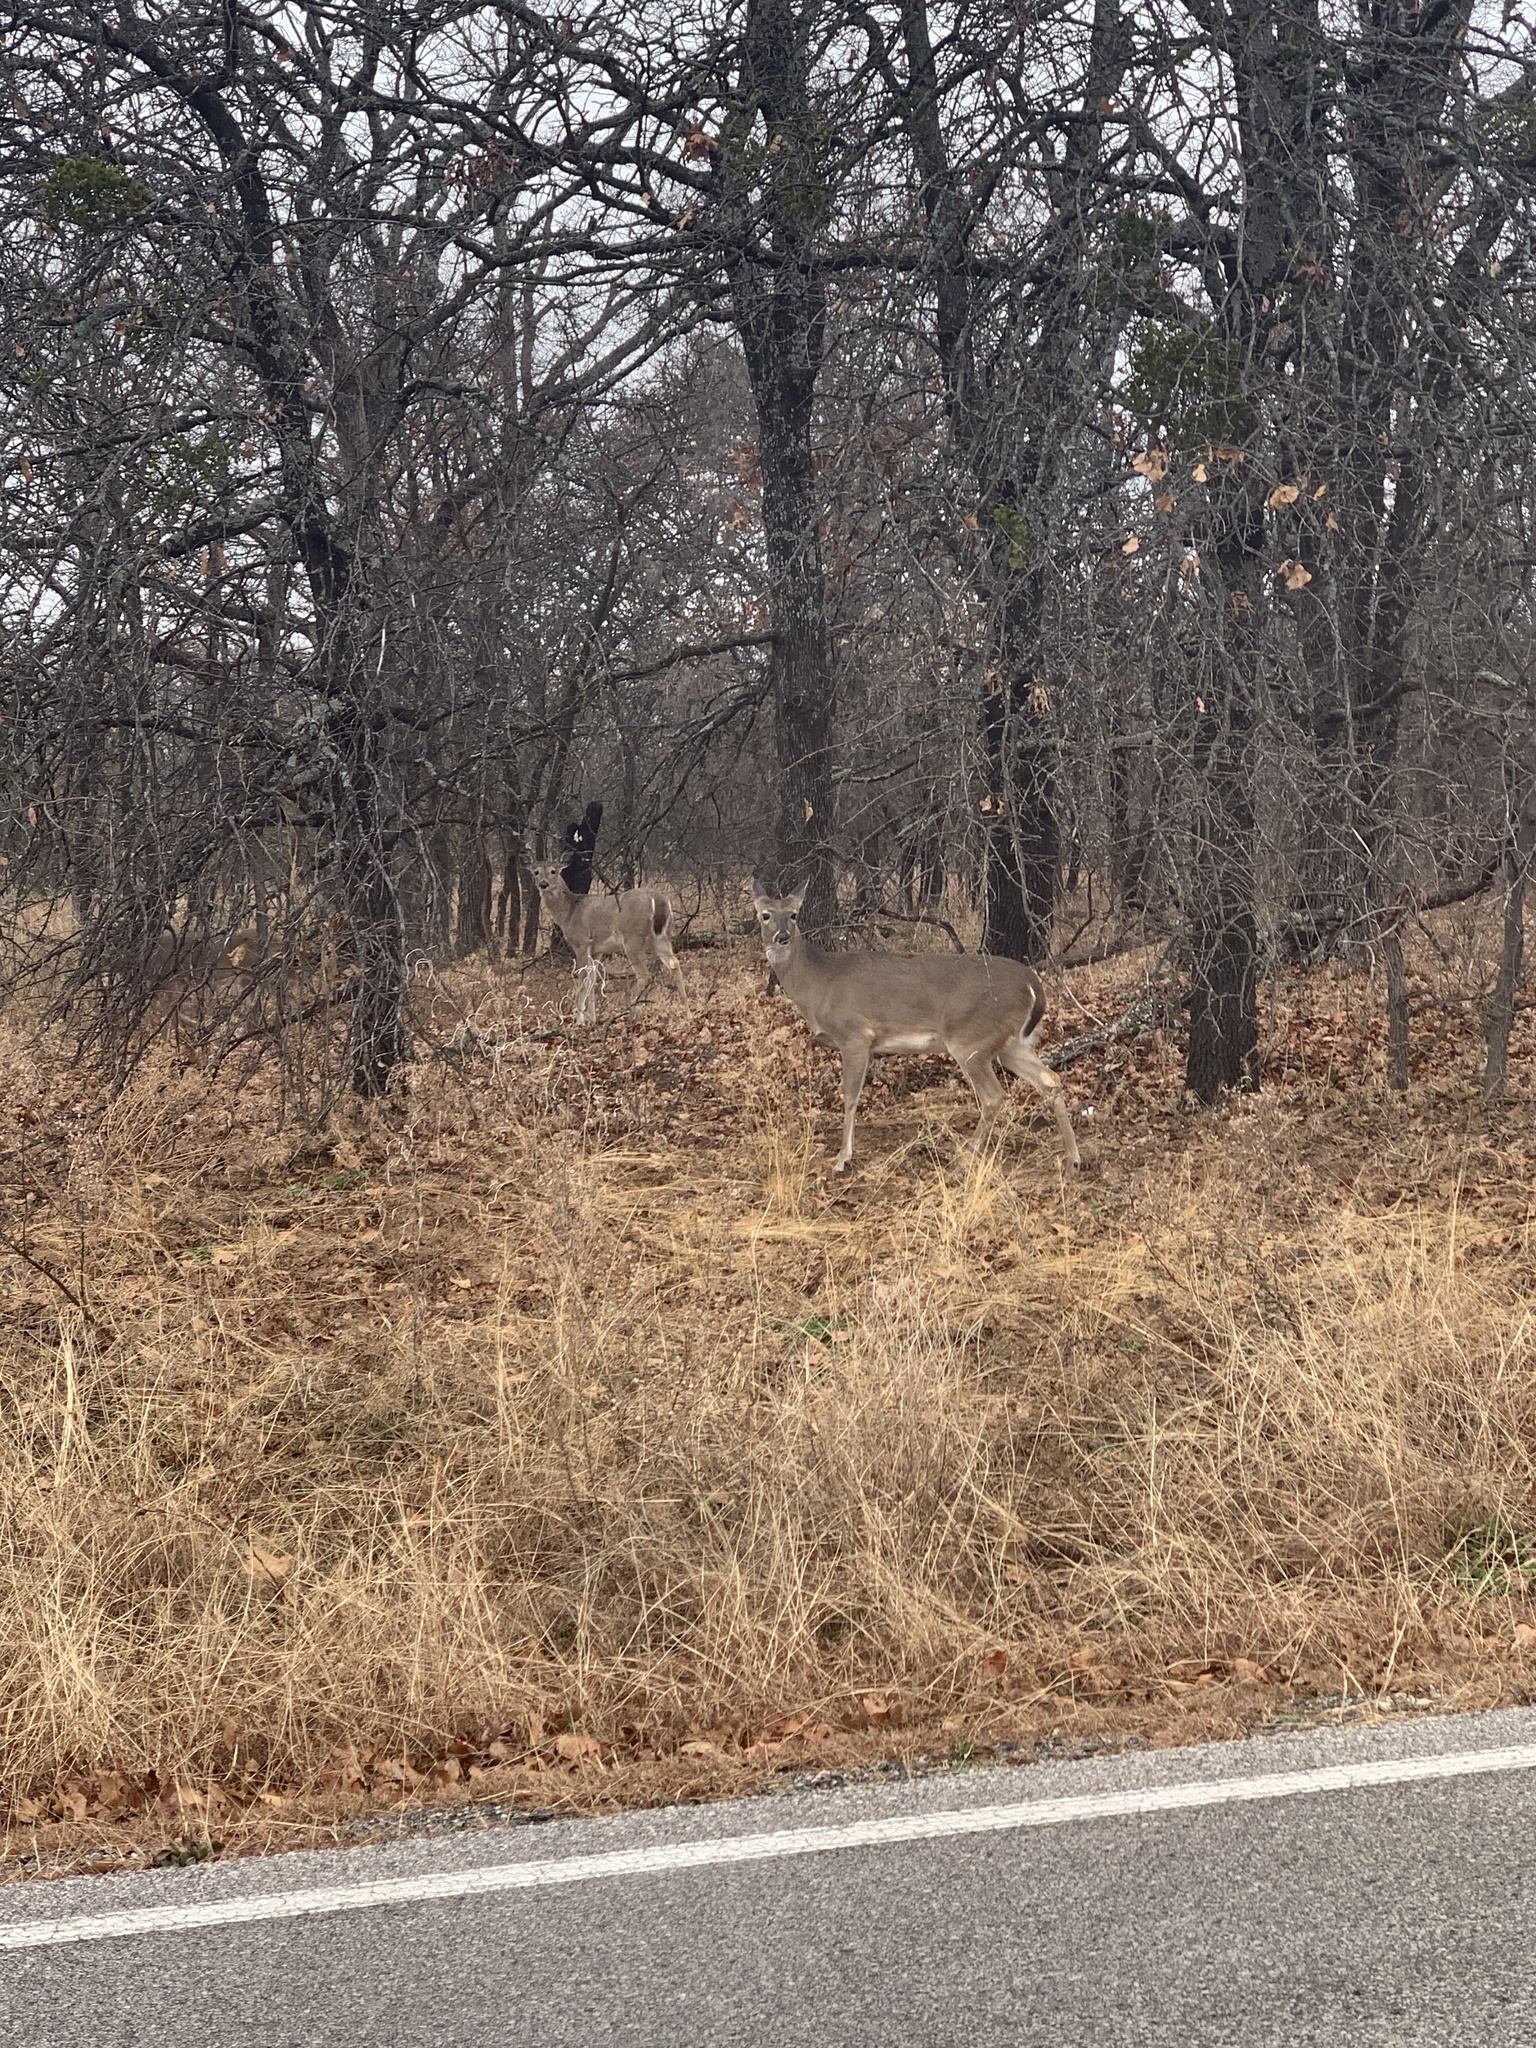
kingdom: Animalia
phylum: Chordata
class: Mammalia
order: Artiodactyla
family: Cervidae
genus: Odocoileus
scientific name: Odocoileus virginianus
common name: White-tailed deer
